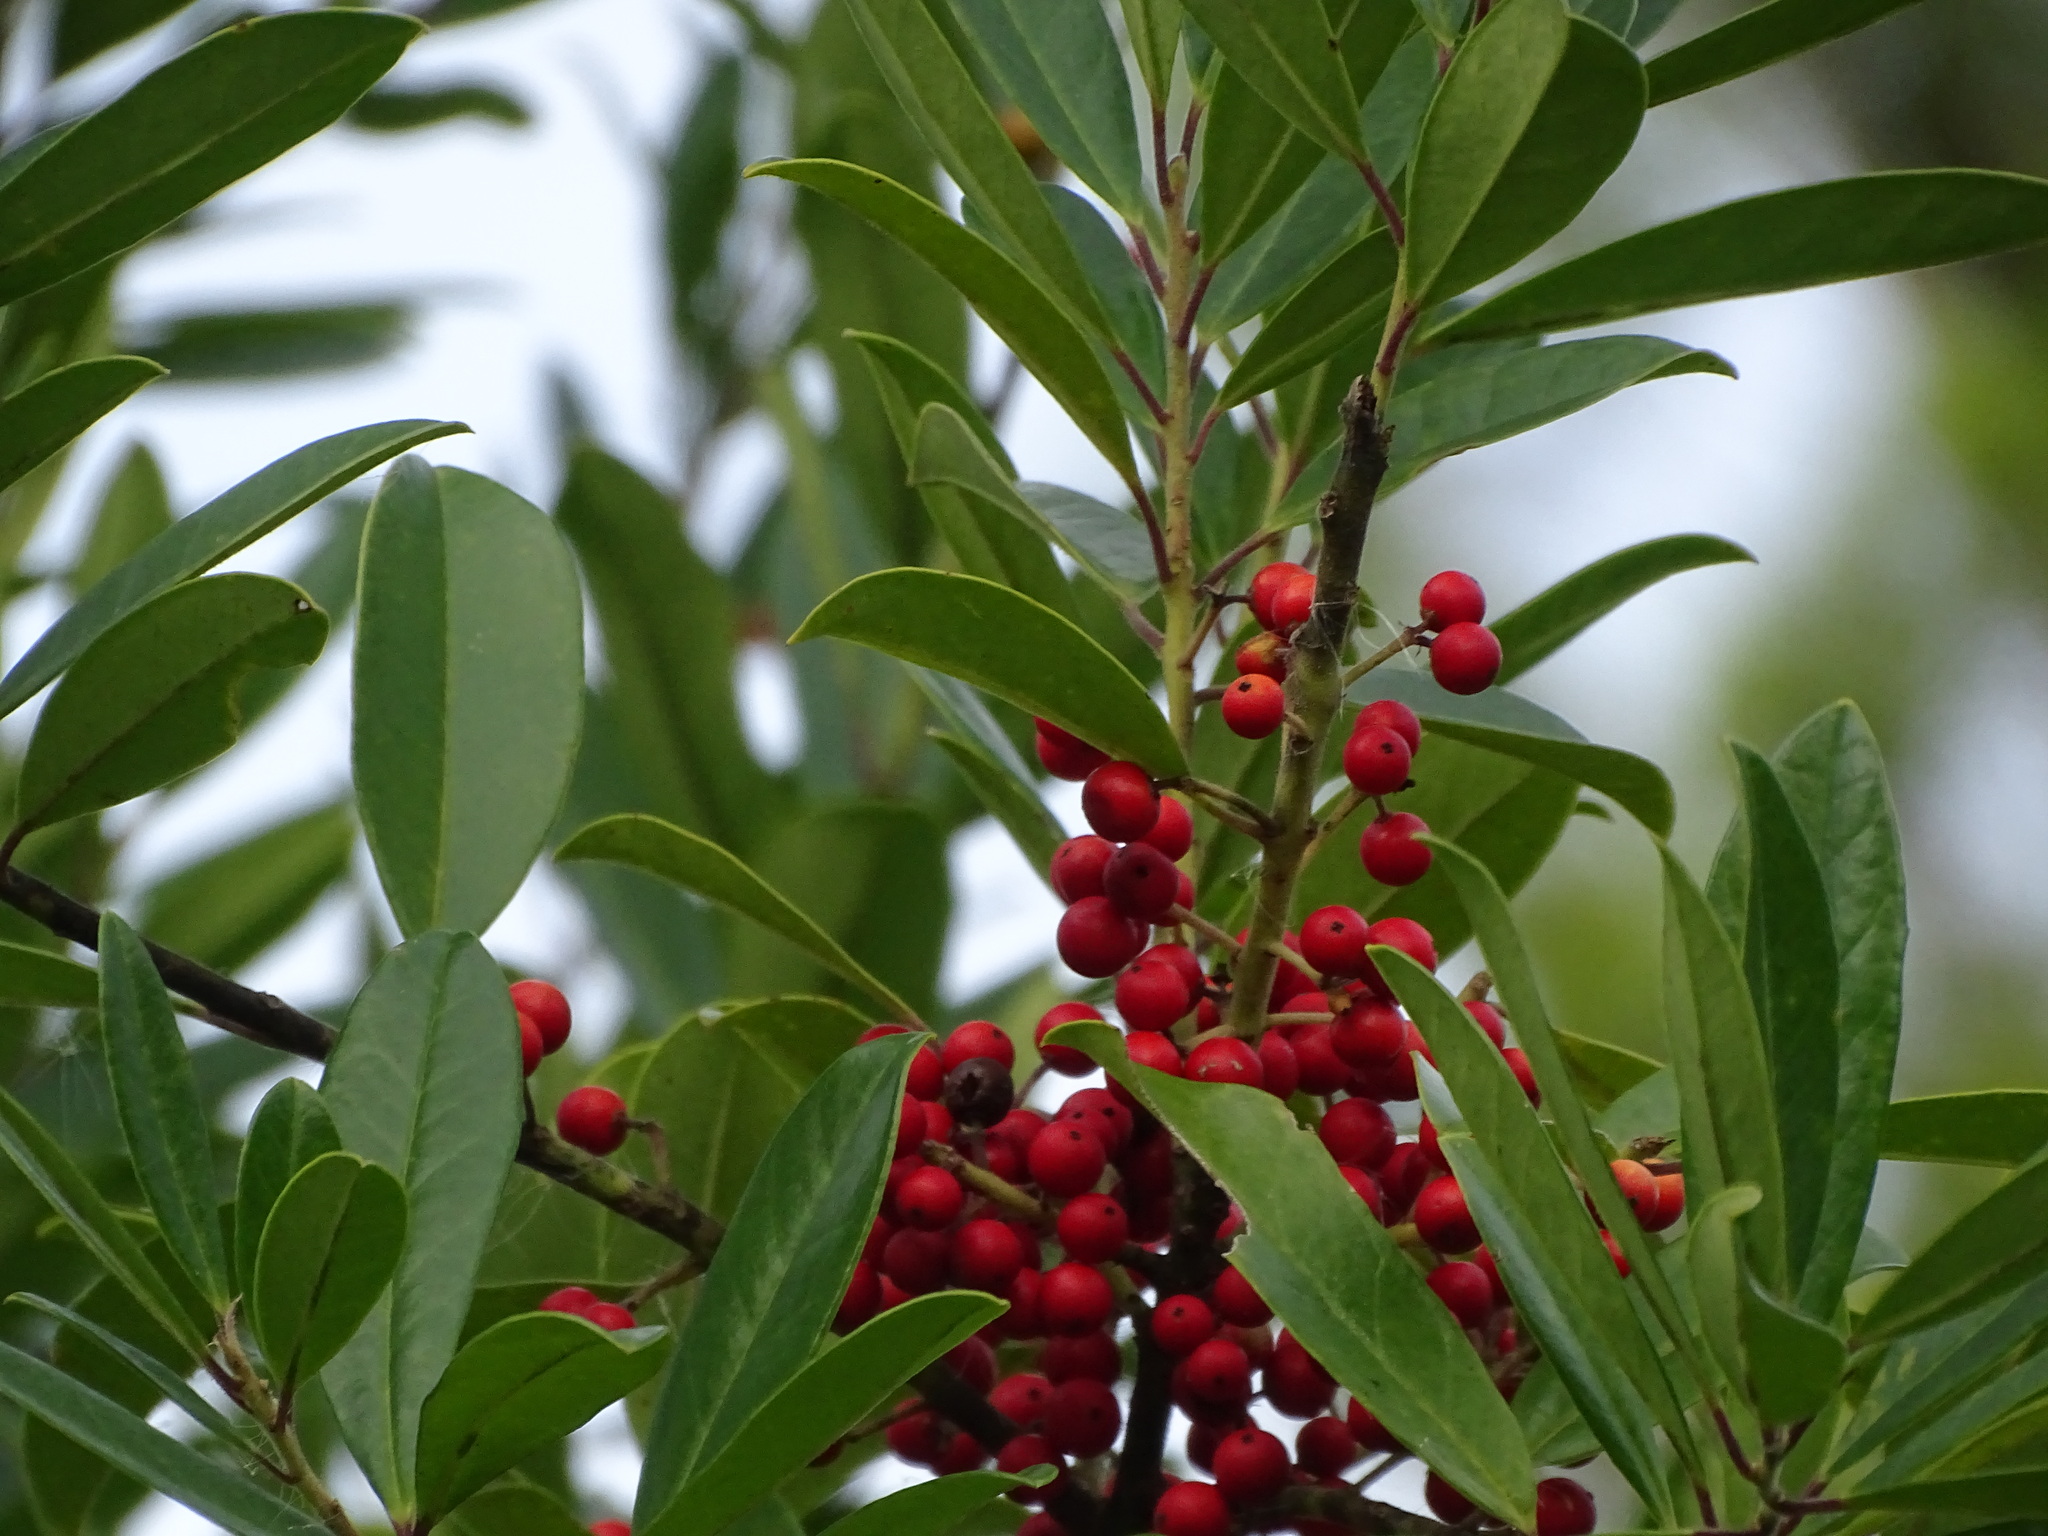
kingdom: Plantae
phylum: Tracheophyta
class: Magnoliopsida
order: Aquifoliales
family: Aquifoliaceae
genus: Ilex
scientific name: Ilex cassine
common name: Dahoon
